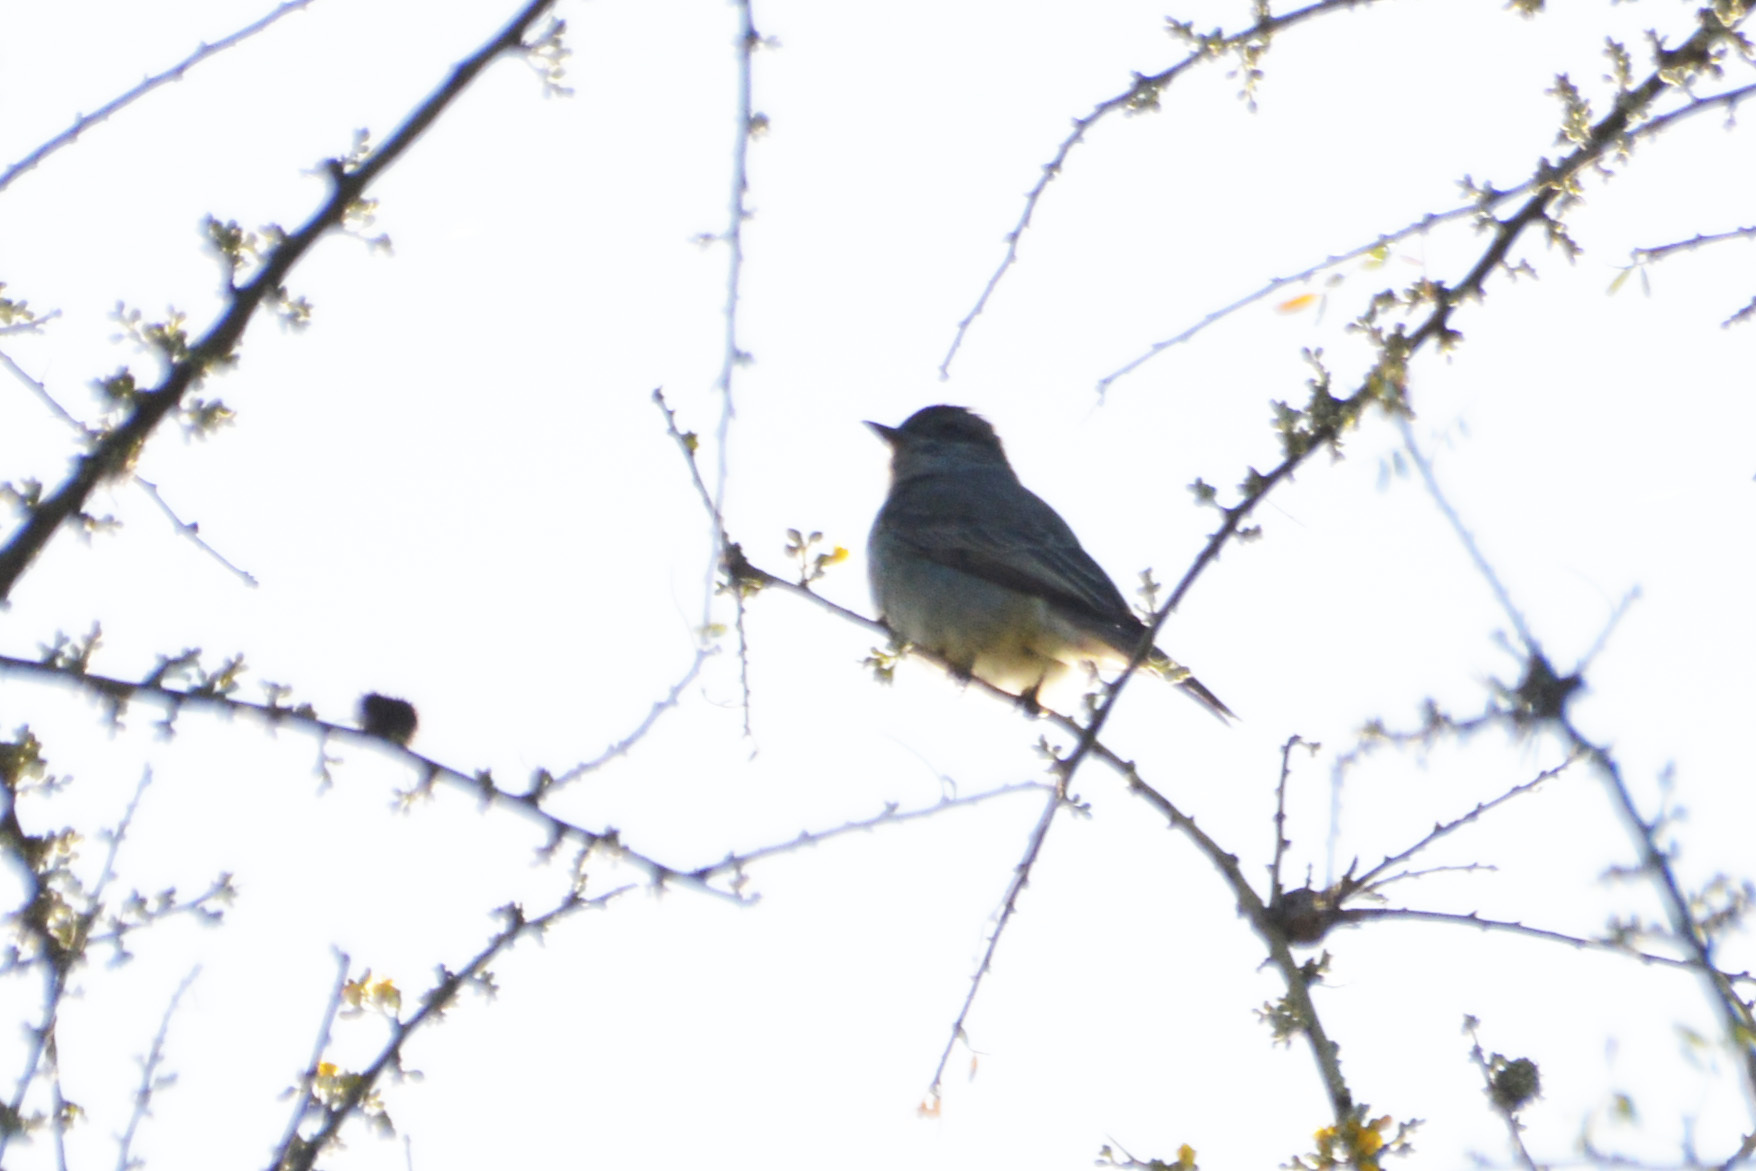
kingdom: Animalia
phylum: Chordata
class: Aves
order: Passeriformes
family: Tyrannidae
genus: Empidonomus
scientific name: Empidonomus aurantioatrocristatus
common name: Crowned slaty flycatcher
